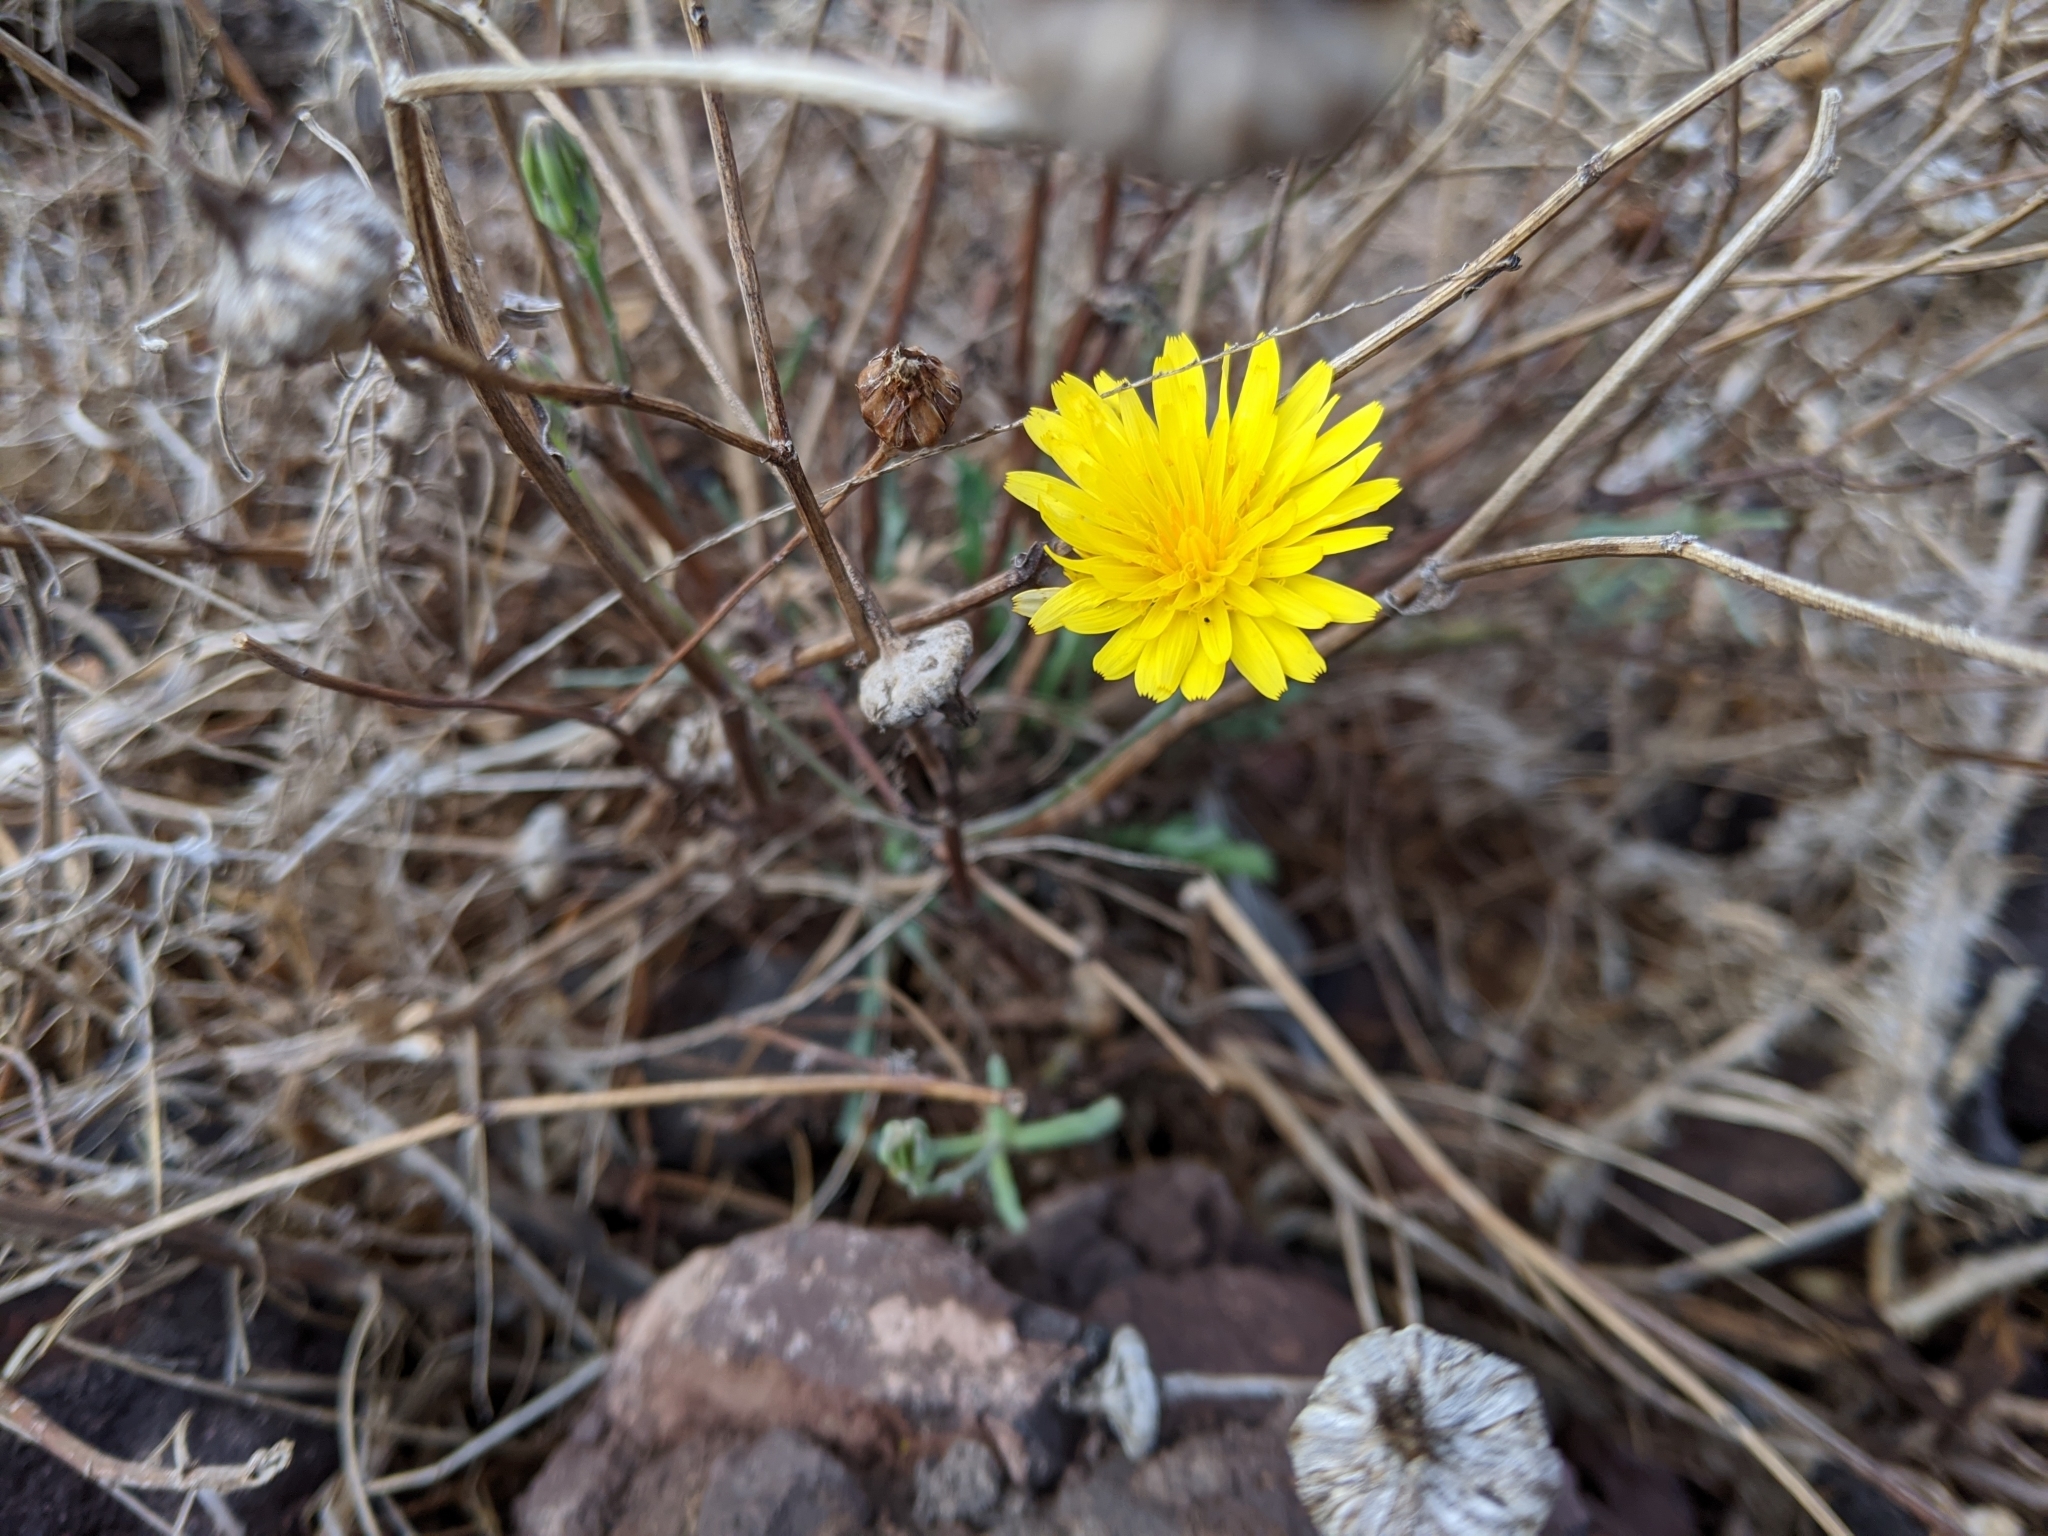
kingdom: Plantae
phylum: Tracheophyta
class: Magnoliopsida
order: Asterales
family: Asteraceae
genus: Reichardia
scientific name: Reichardia picroides
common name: Common brighteyes
